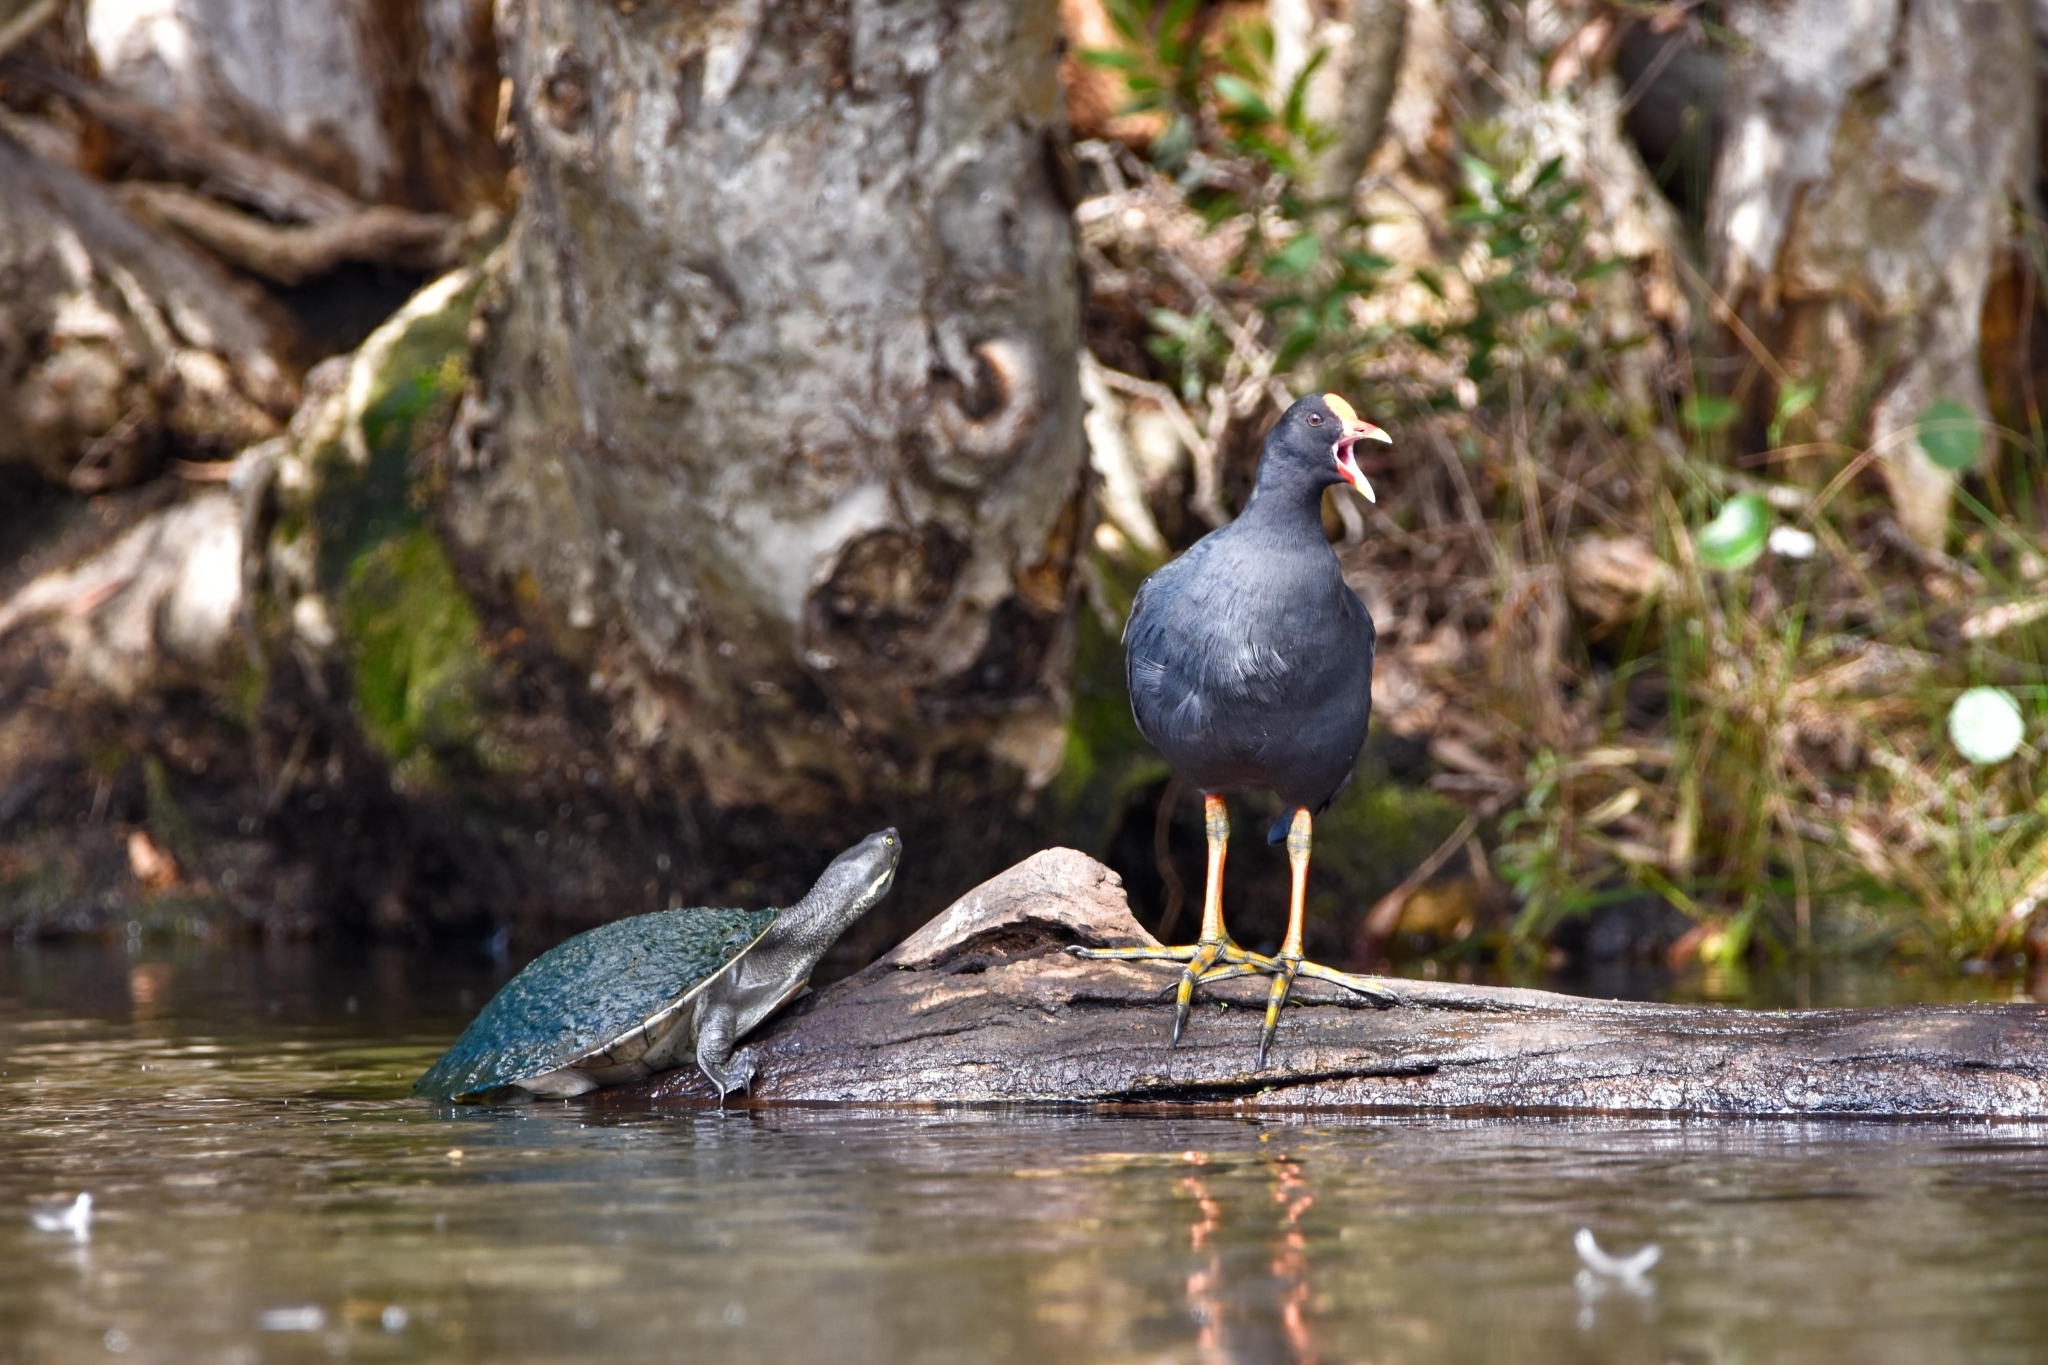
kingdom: Animalia
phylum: Chordata
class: Aves
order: Gruiformes
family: Rallidae
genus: Gallinula
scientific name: Gallinula tenebrosa
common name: Dusky moorhen
